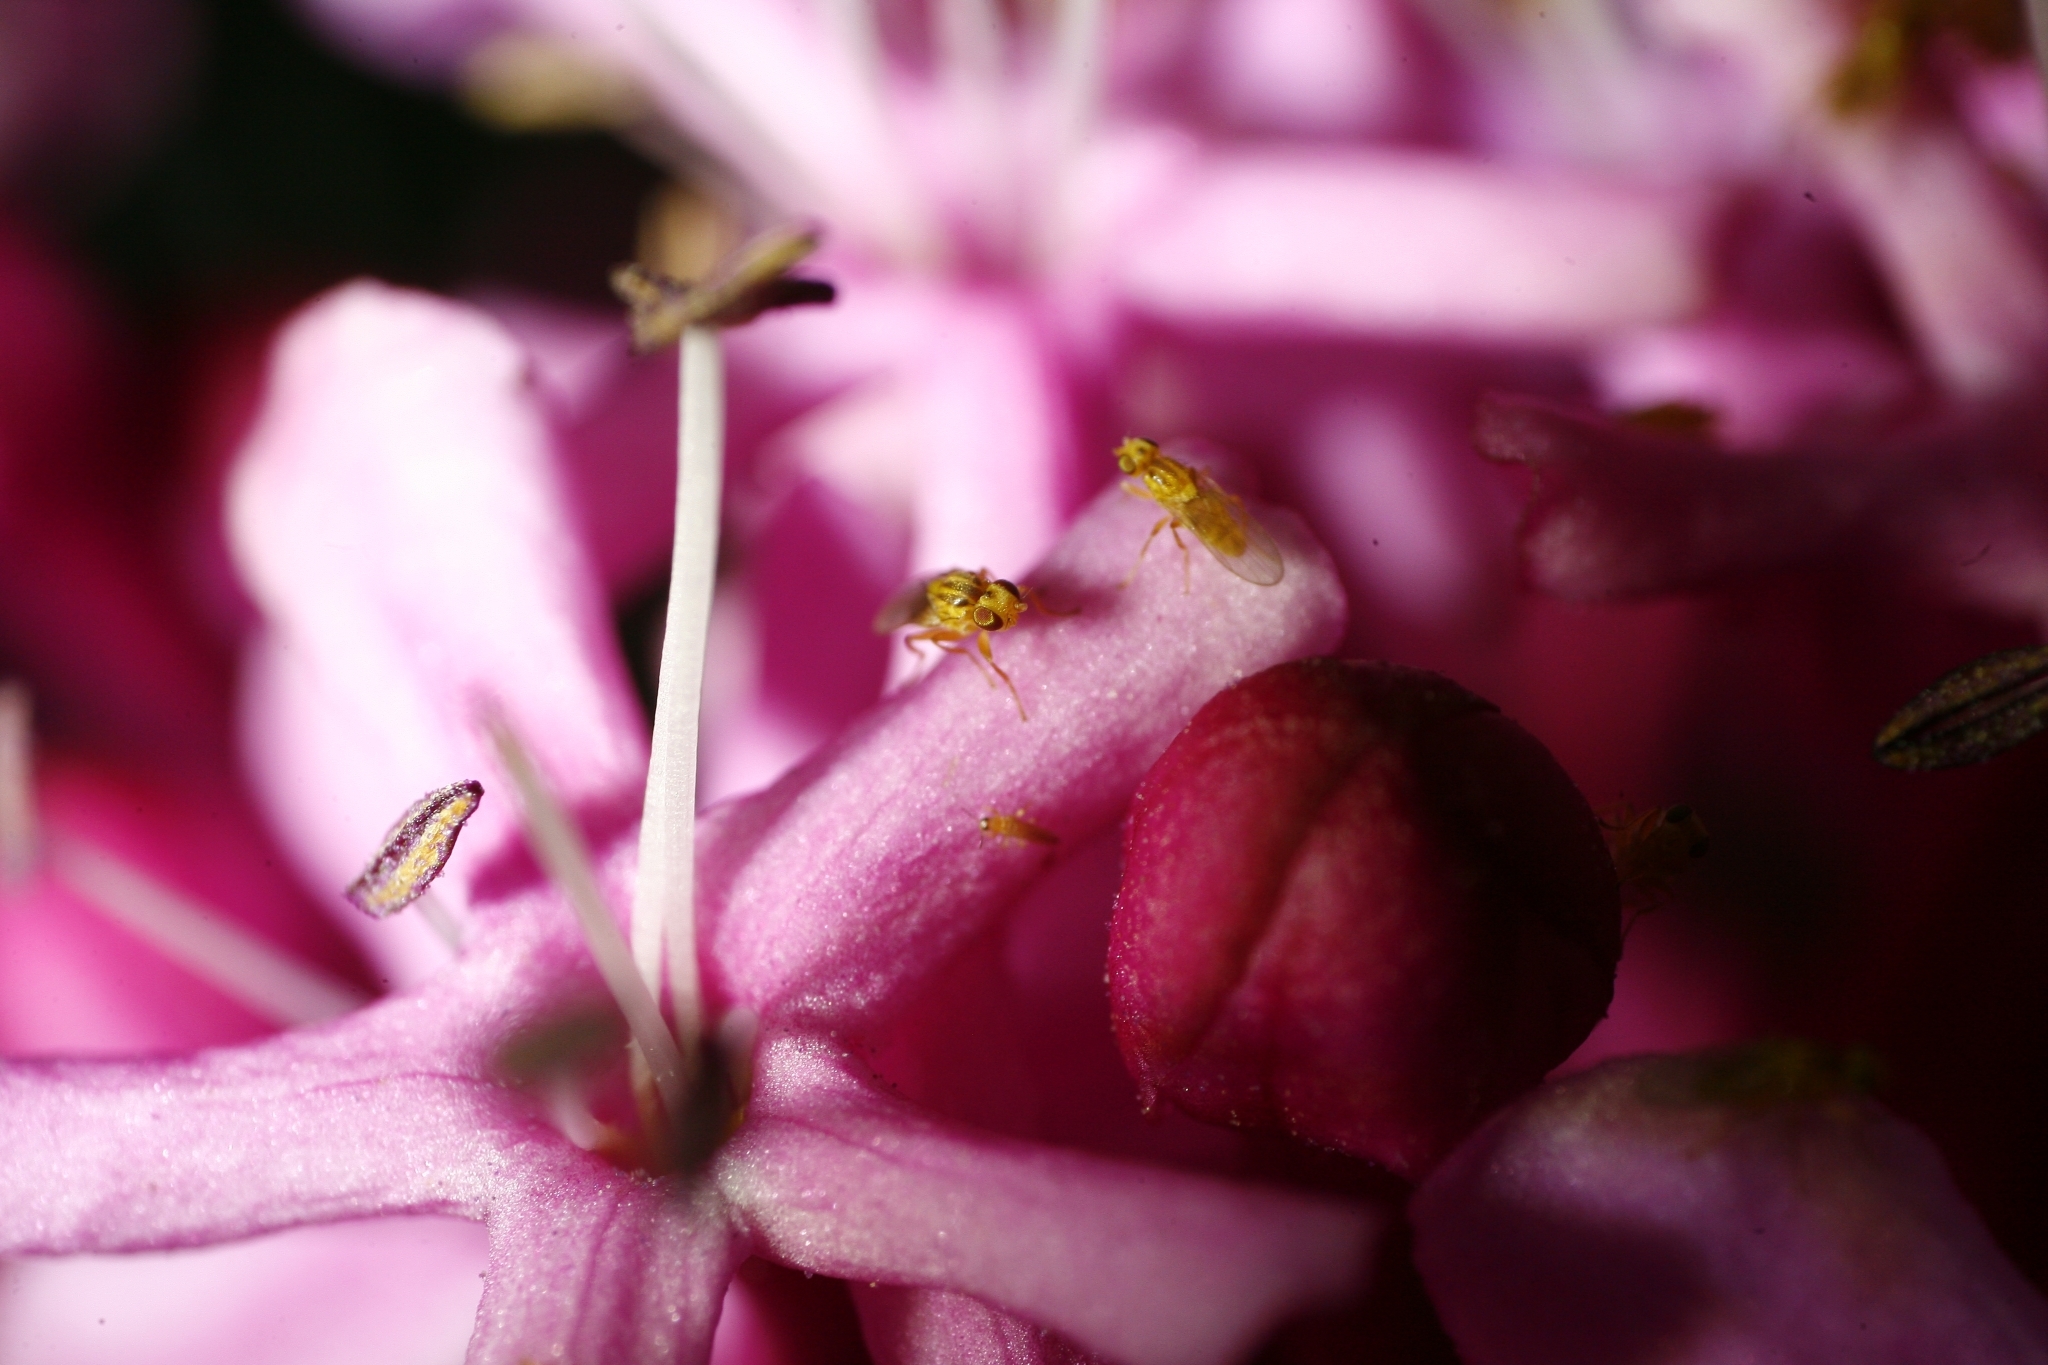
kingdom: Animalia
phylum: Arthropoda
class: Insecta
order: Diptera
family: Chloropidae
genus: Aphanotrigonum
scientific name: Aphanotrigonum huttoni
